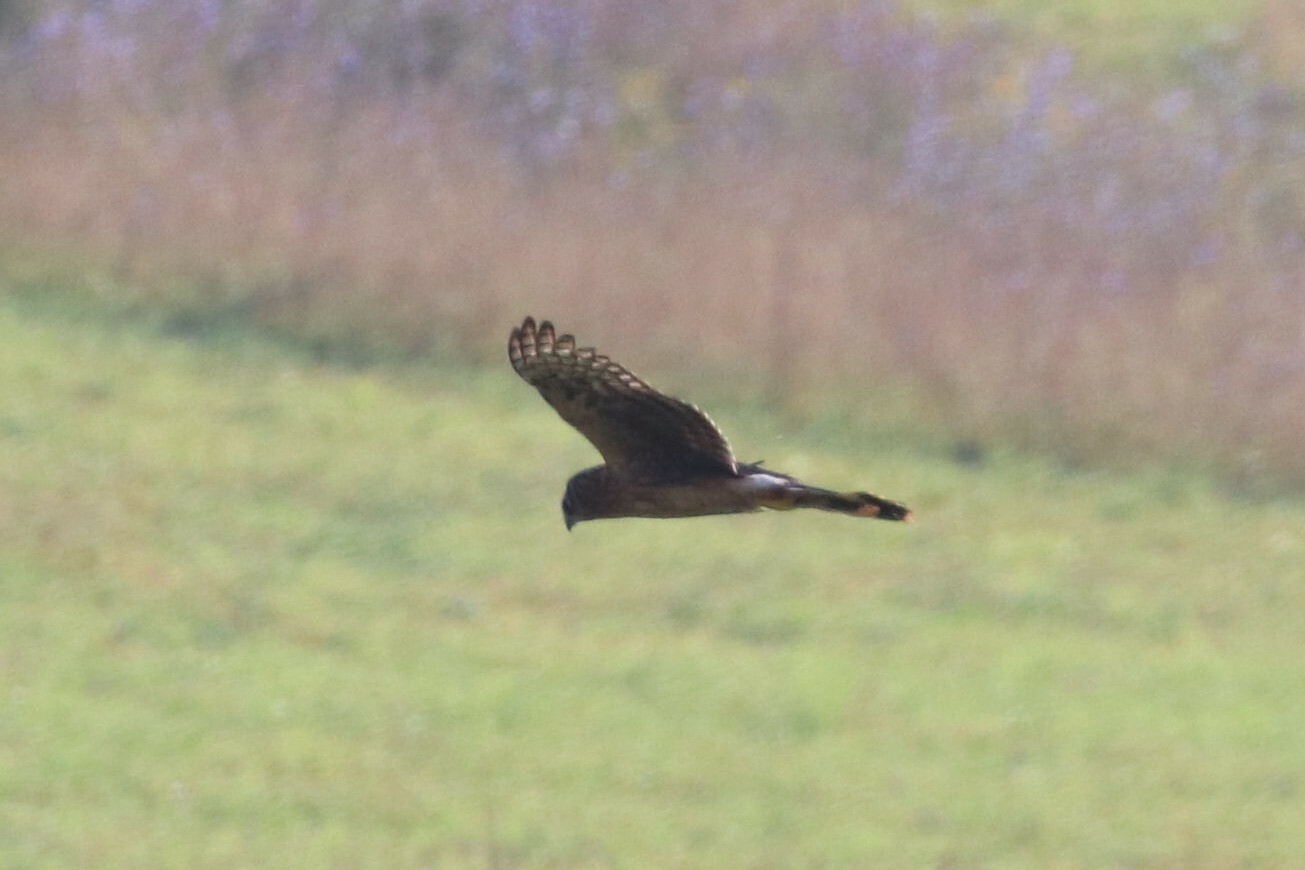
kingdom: Animalia
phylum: Chordata
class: Aves
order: Accipitriformes
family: Accipitridae
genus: Circus
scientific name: Circus cyaneus
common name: Hen harrier
